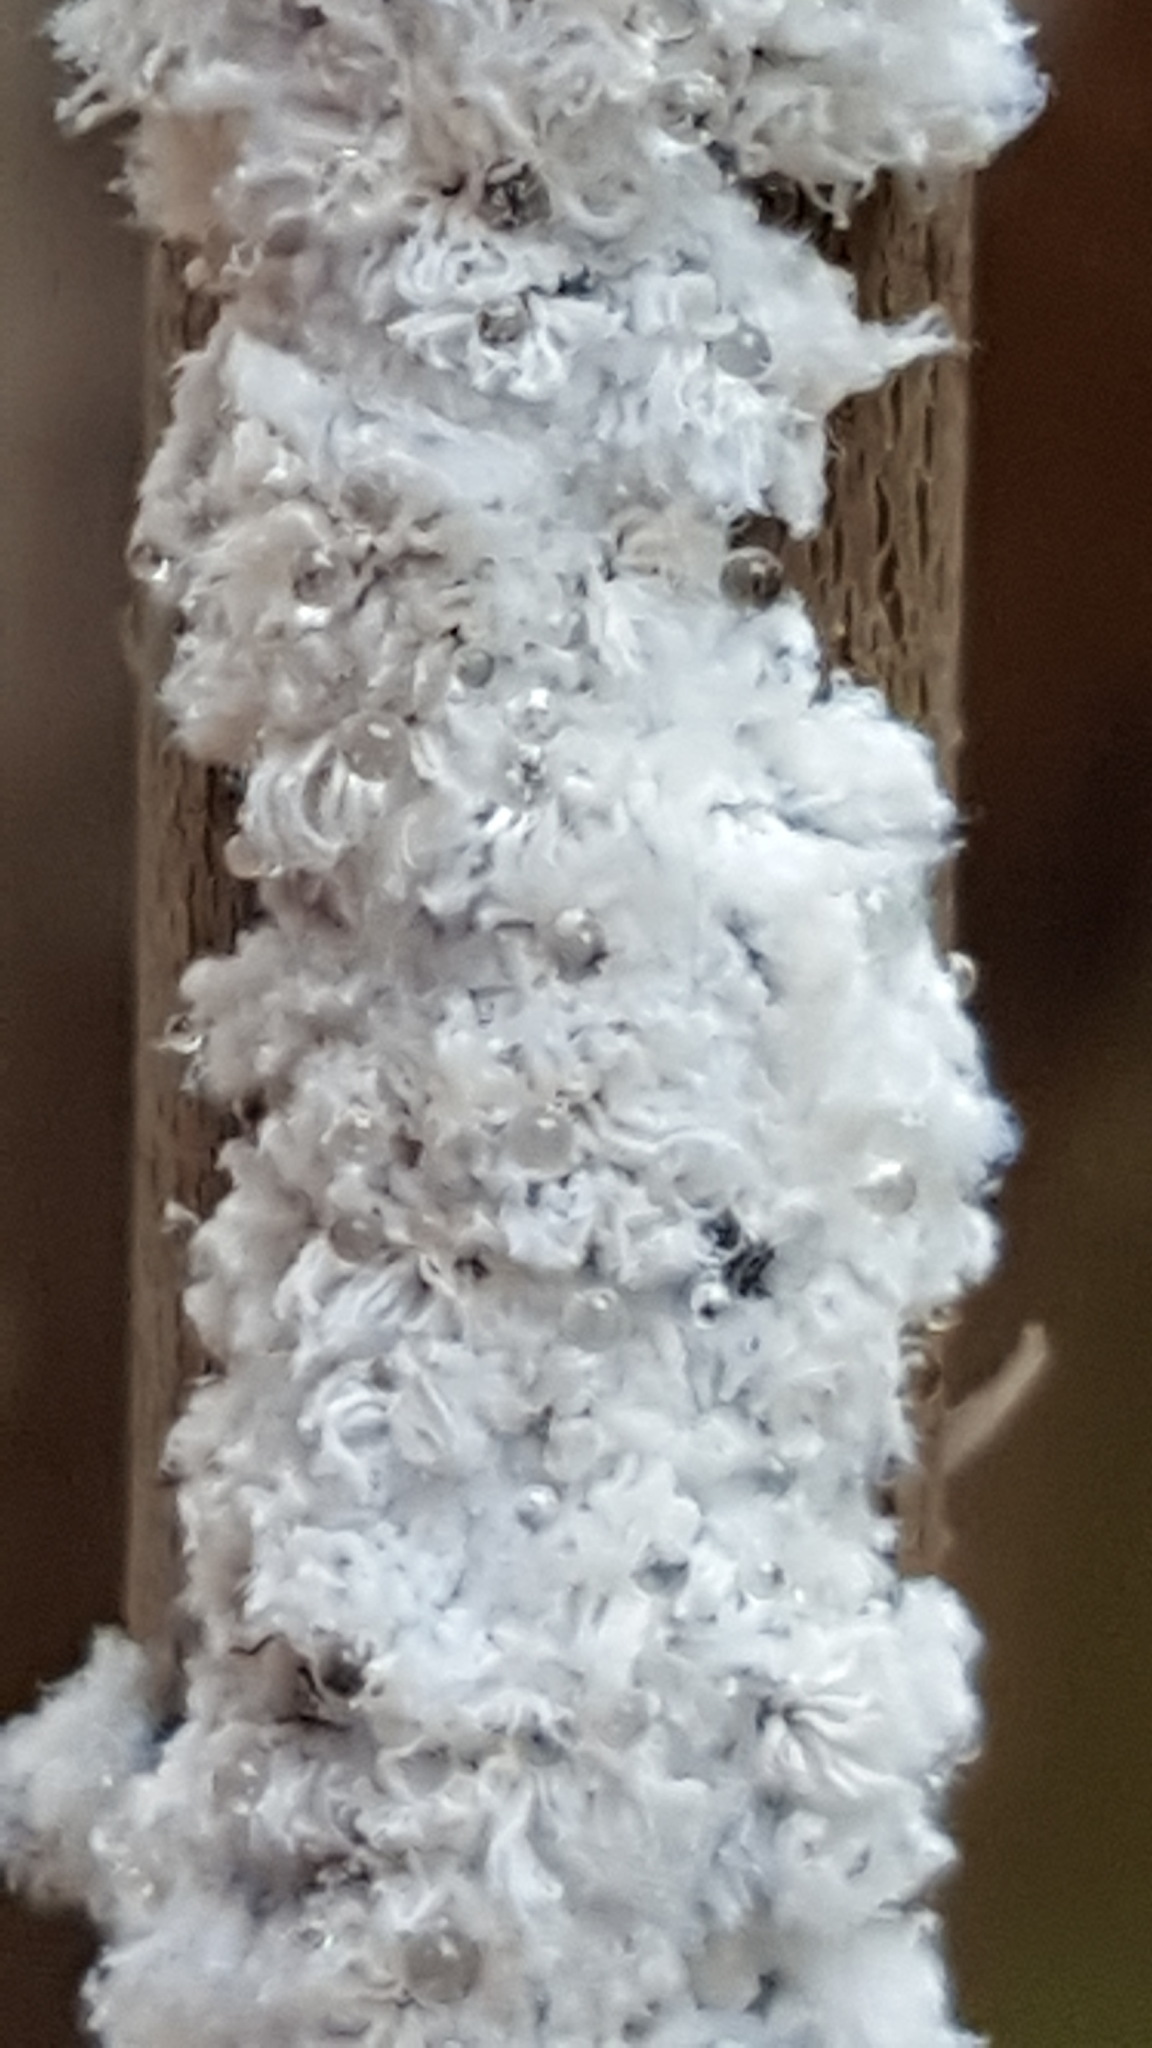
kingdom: Animalia
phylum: Arthropoda
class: Insecta
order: Hemiptera
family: Aphididae
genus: Prociphilus
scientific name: Prociphilus tessellatus
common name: Woolly alder aphid
